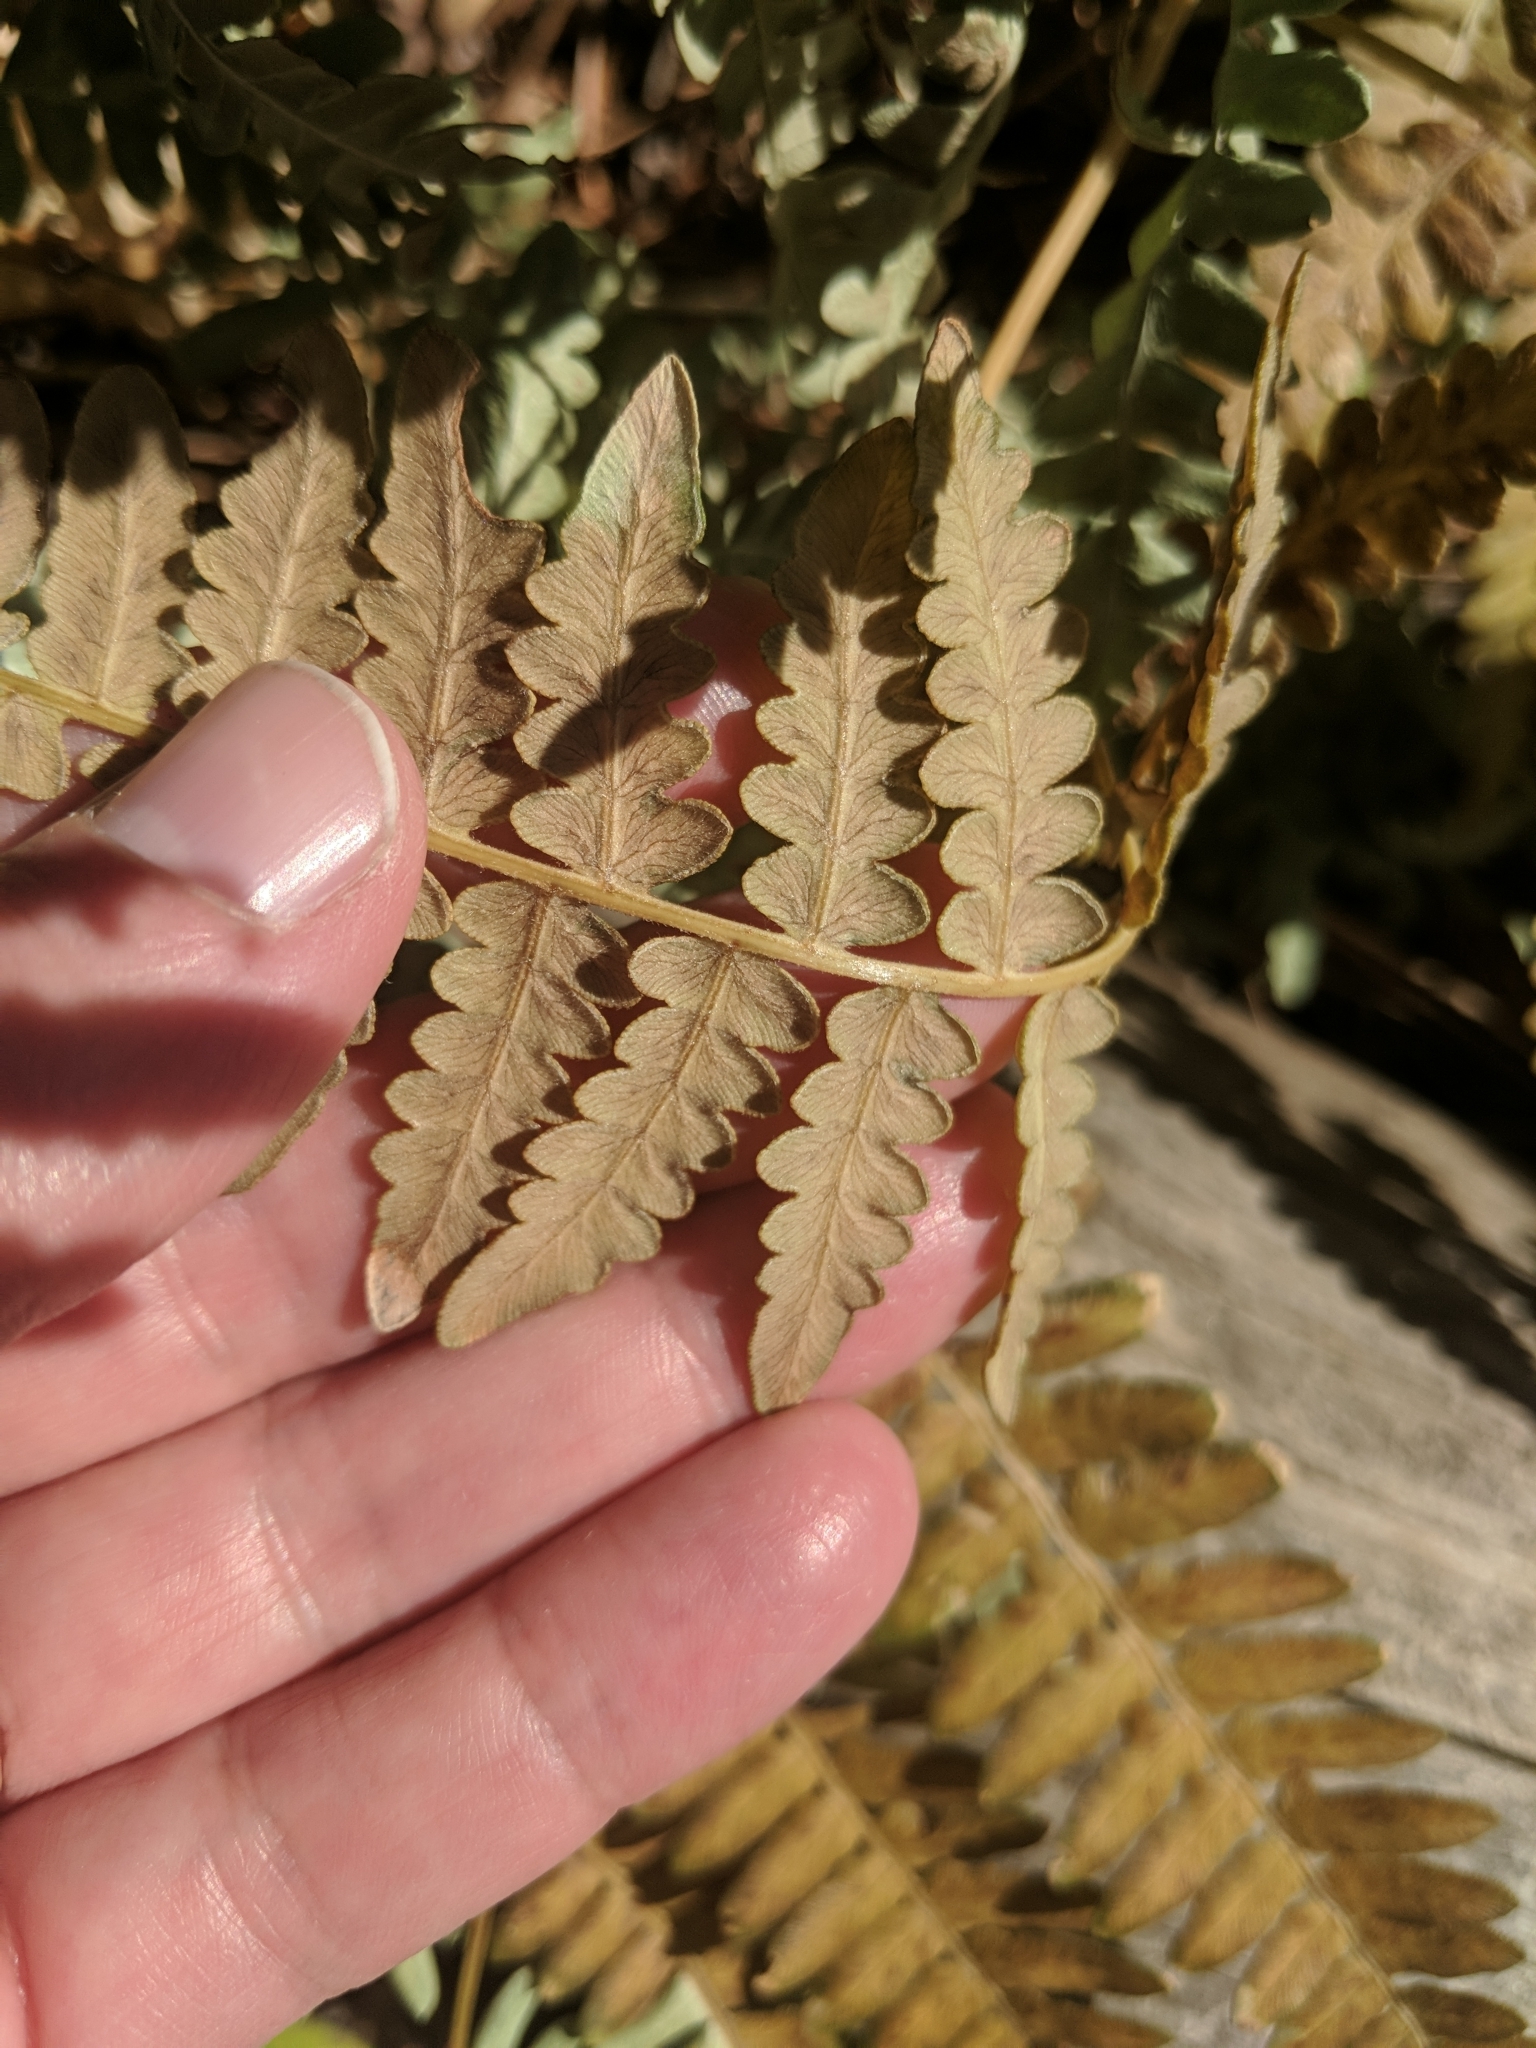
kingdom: Plantae
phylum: Tracheophyta
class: Polypodiopsida
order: Polypodiales
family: Dennstaedtiaceae
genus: Pteridium
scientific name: Pteridium aquilinum
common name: Bracken
